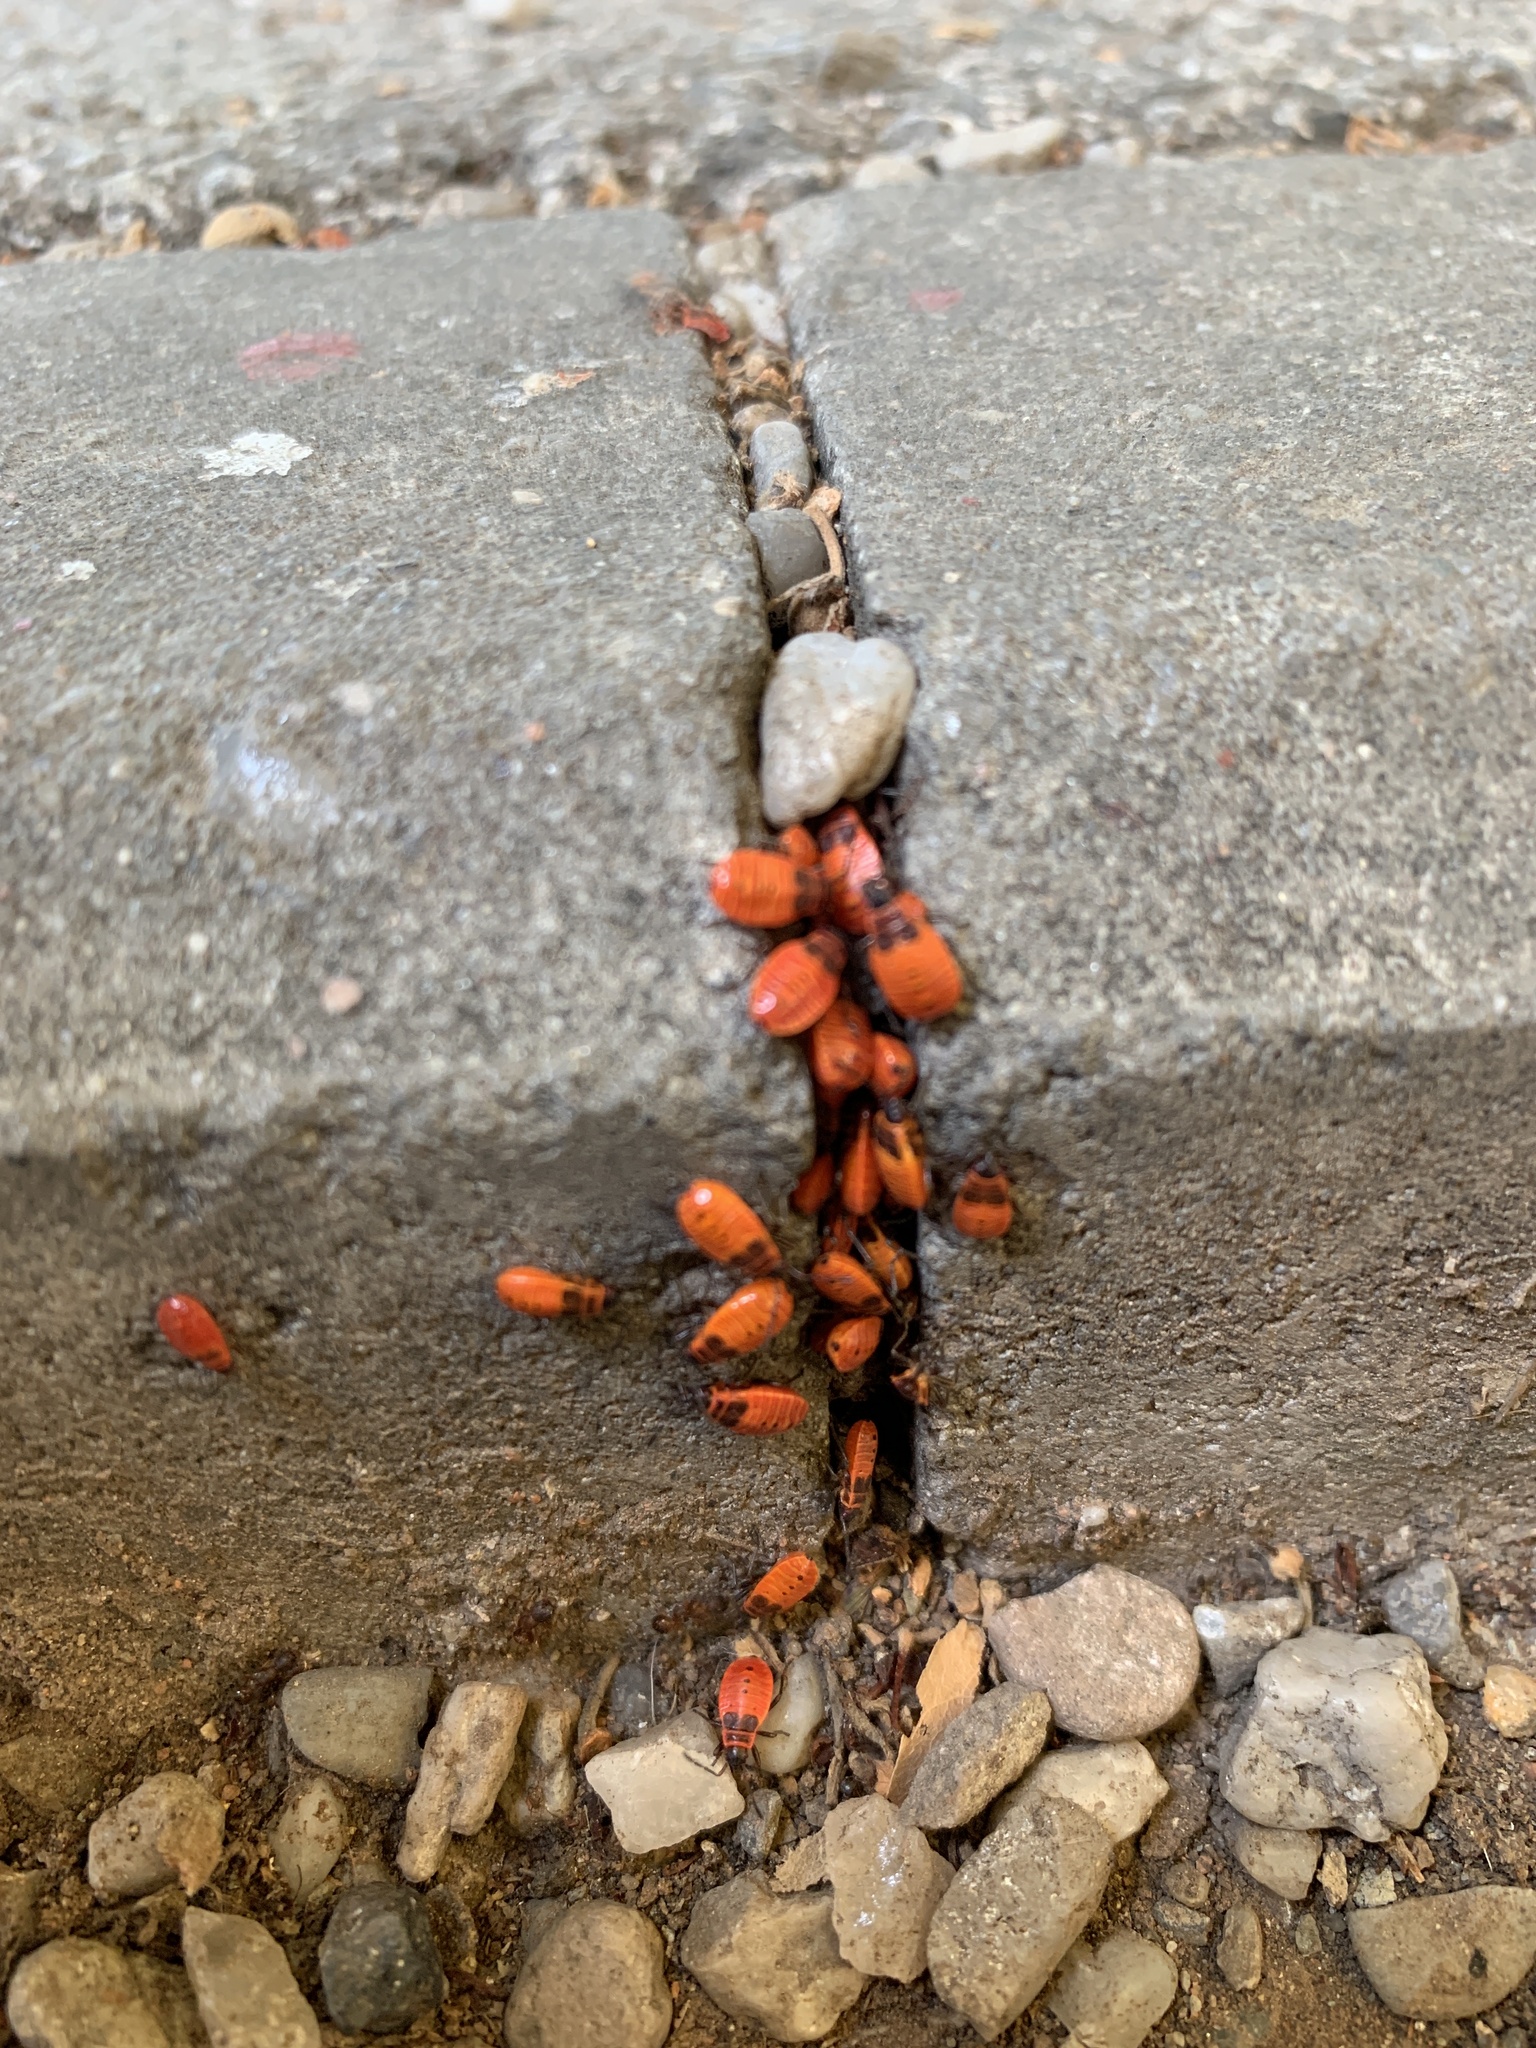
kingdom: Animalia
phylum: Arthropoda
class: Insecta
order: Hemiptera
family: Pyrrhocoridae
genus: Pyrrhocoris
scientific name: Pyrrhocoris apterus
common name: Firebug
